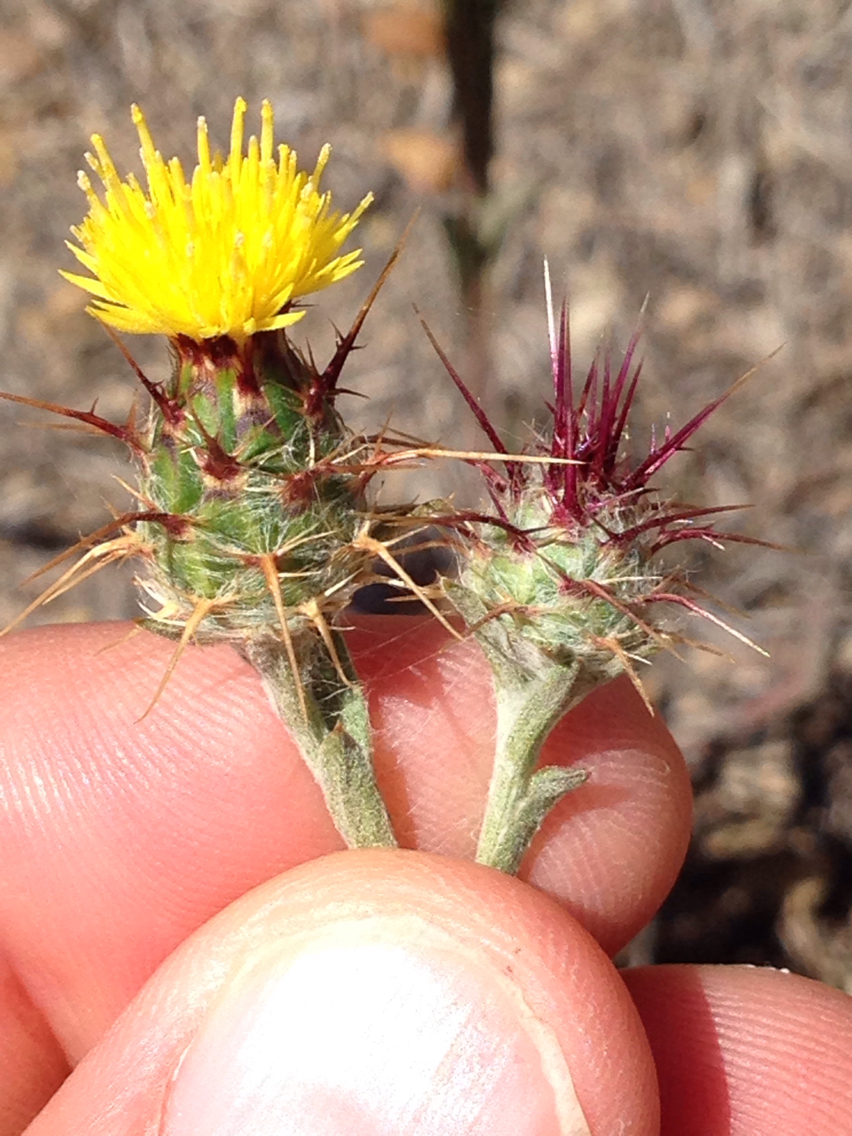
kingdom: Plantae
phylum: Tracheophyta
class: Magnoliopsida
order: Asterales
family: Asteraceae
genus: Centaurea
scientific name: Centaurea melitensis
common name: Maltese star-thistle
